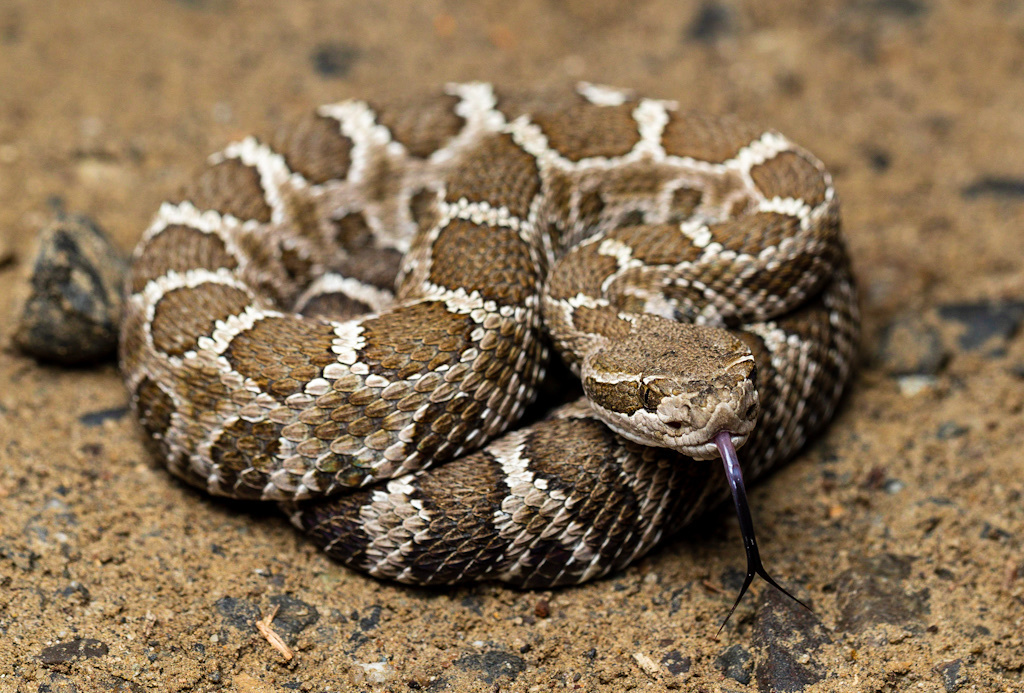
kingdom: Animalia
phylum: Chordata
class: Squamata
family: Viperidae
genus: Crotalus
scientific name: Crotalus oreganus
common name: Abyssus
